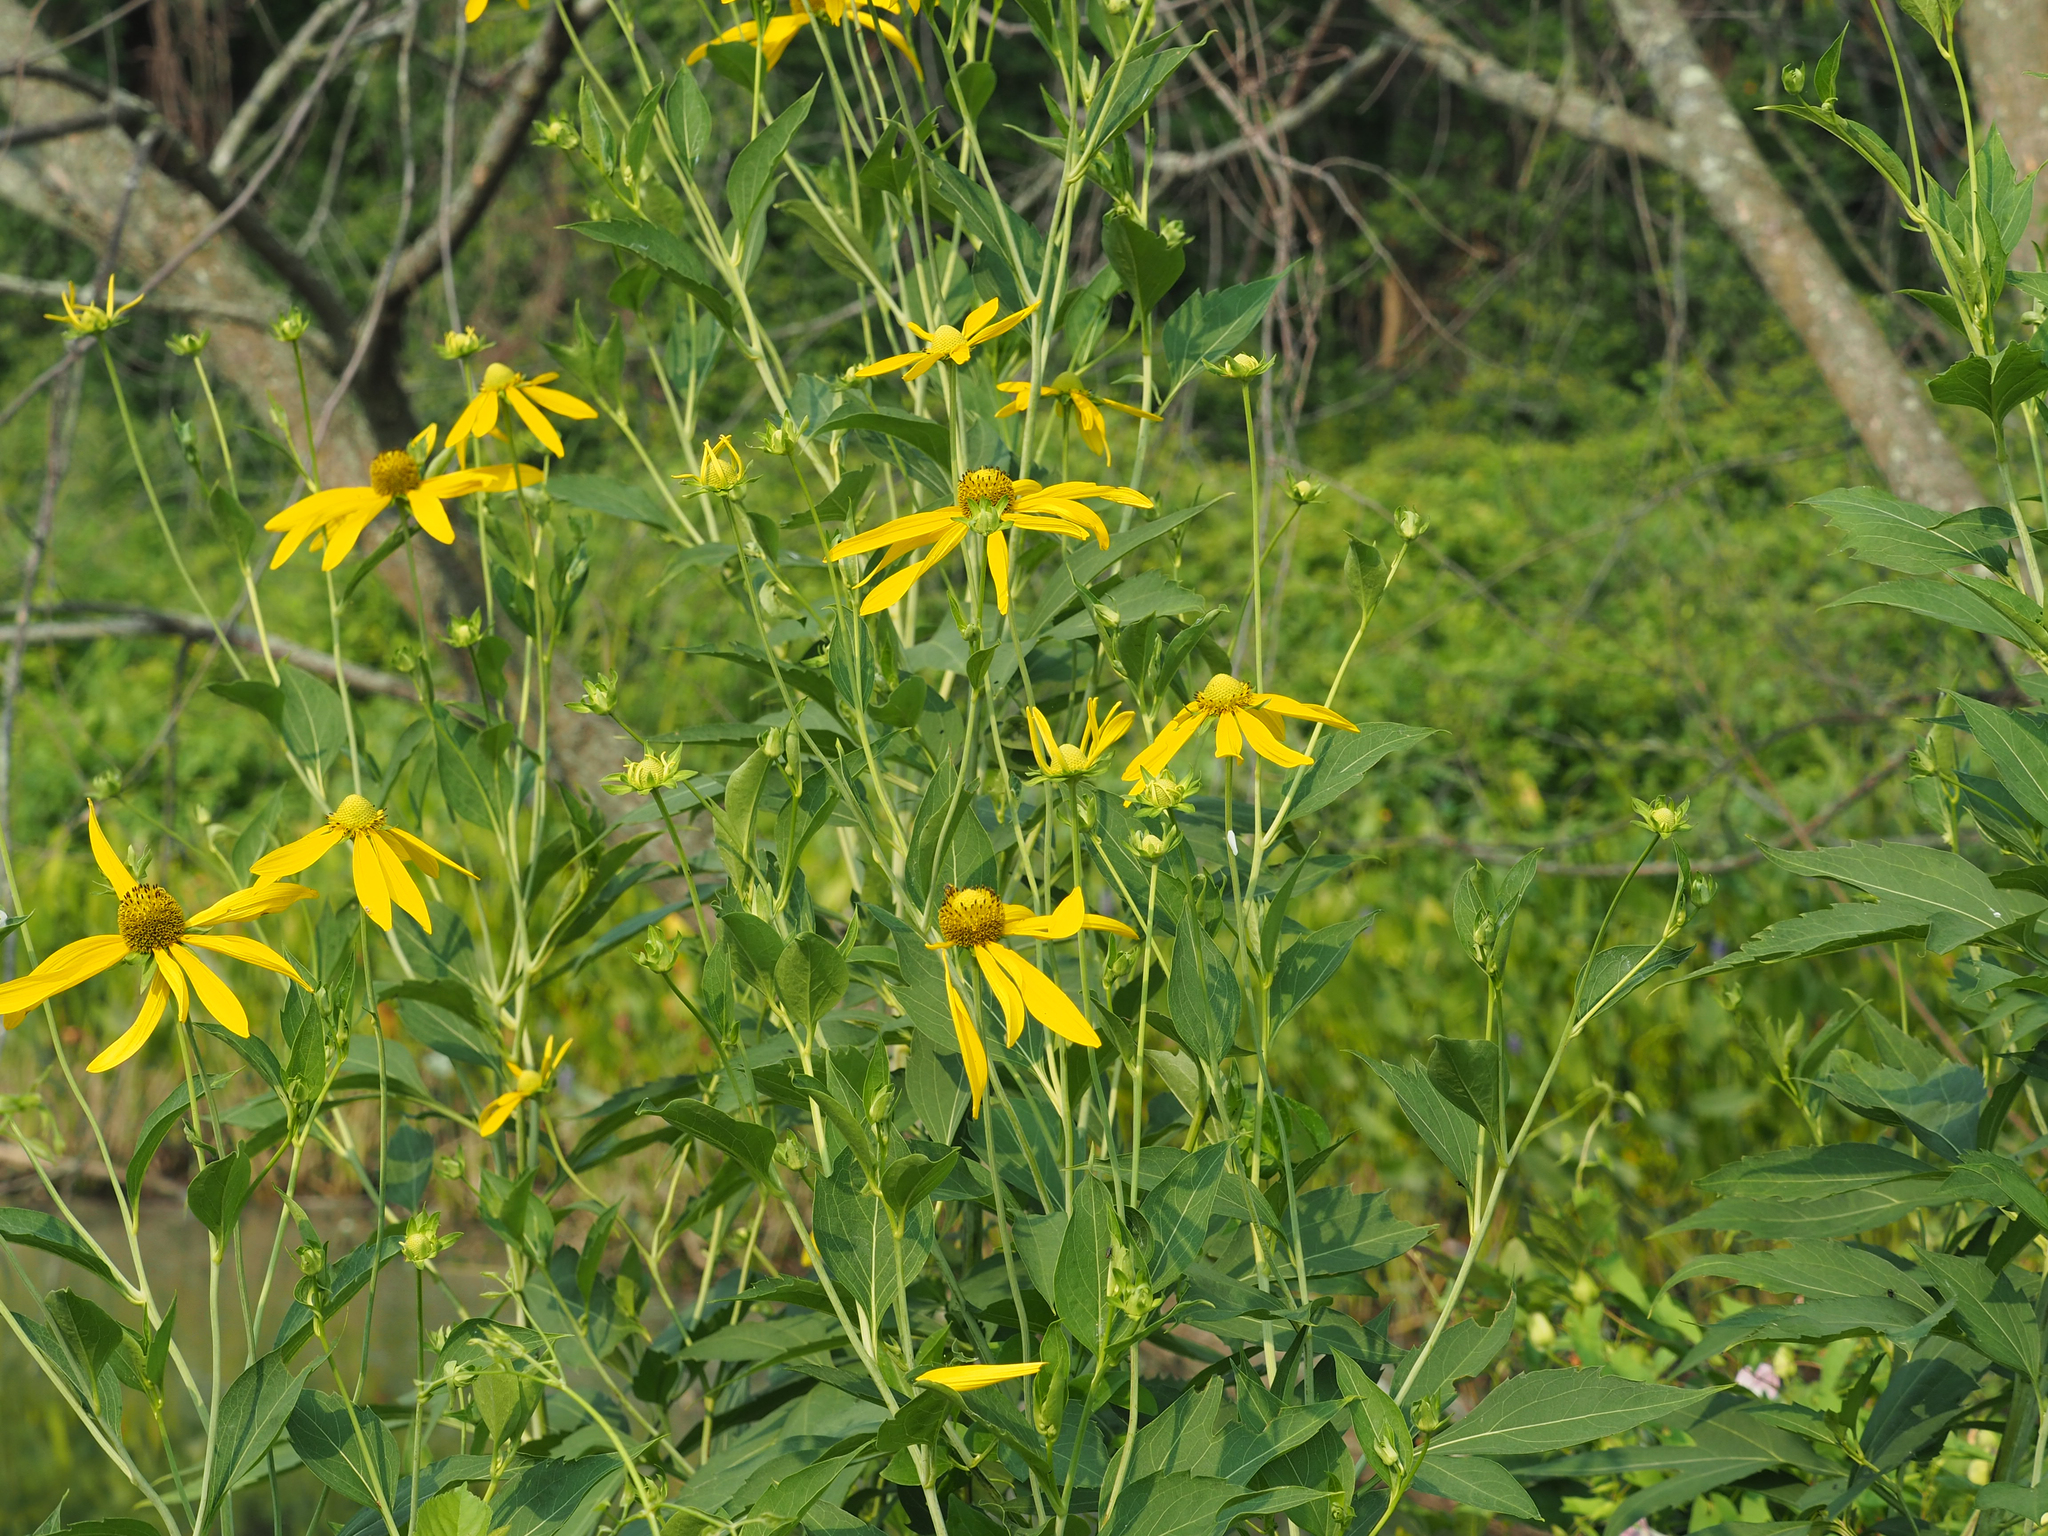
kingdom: Plantae
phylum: Tracheophyta
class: Magnoliopsida
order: Asterales
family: Asteraceae
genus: Rudbeckia
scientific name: Rudbeckia laciniata
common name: Coneflower
